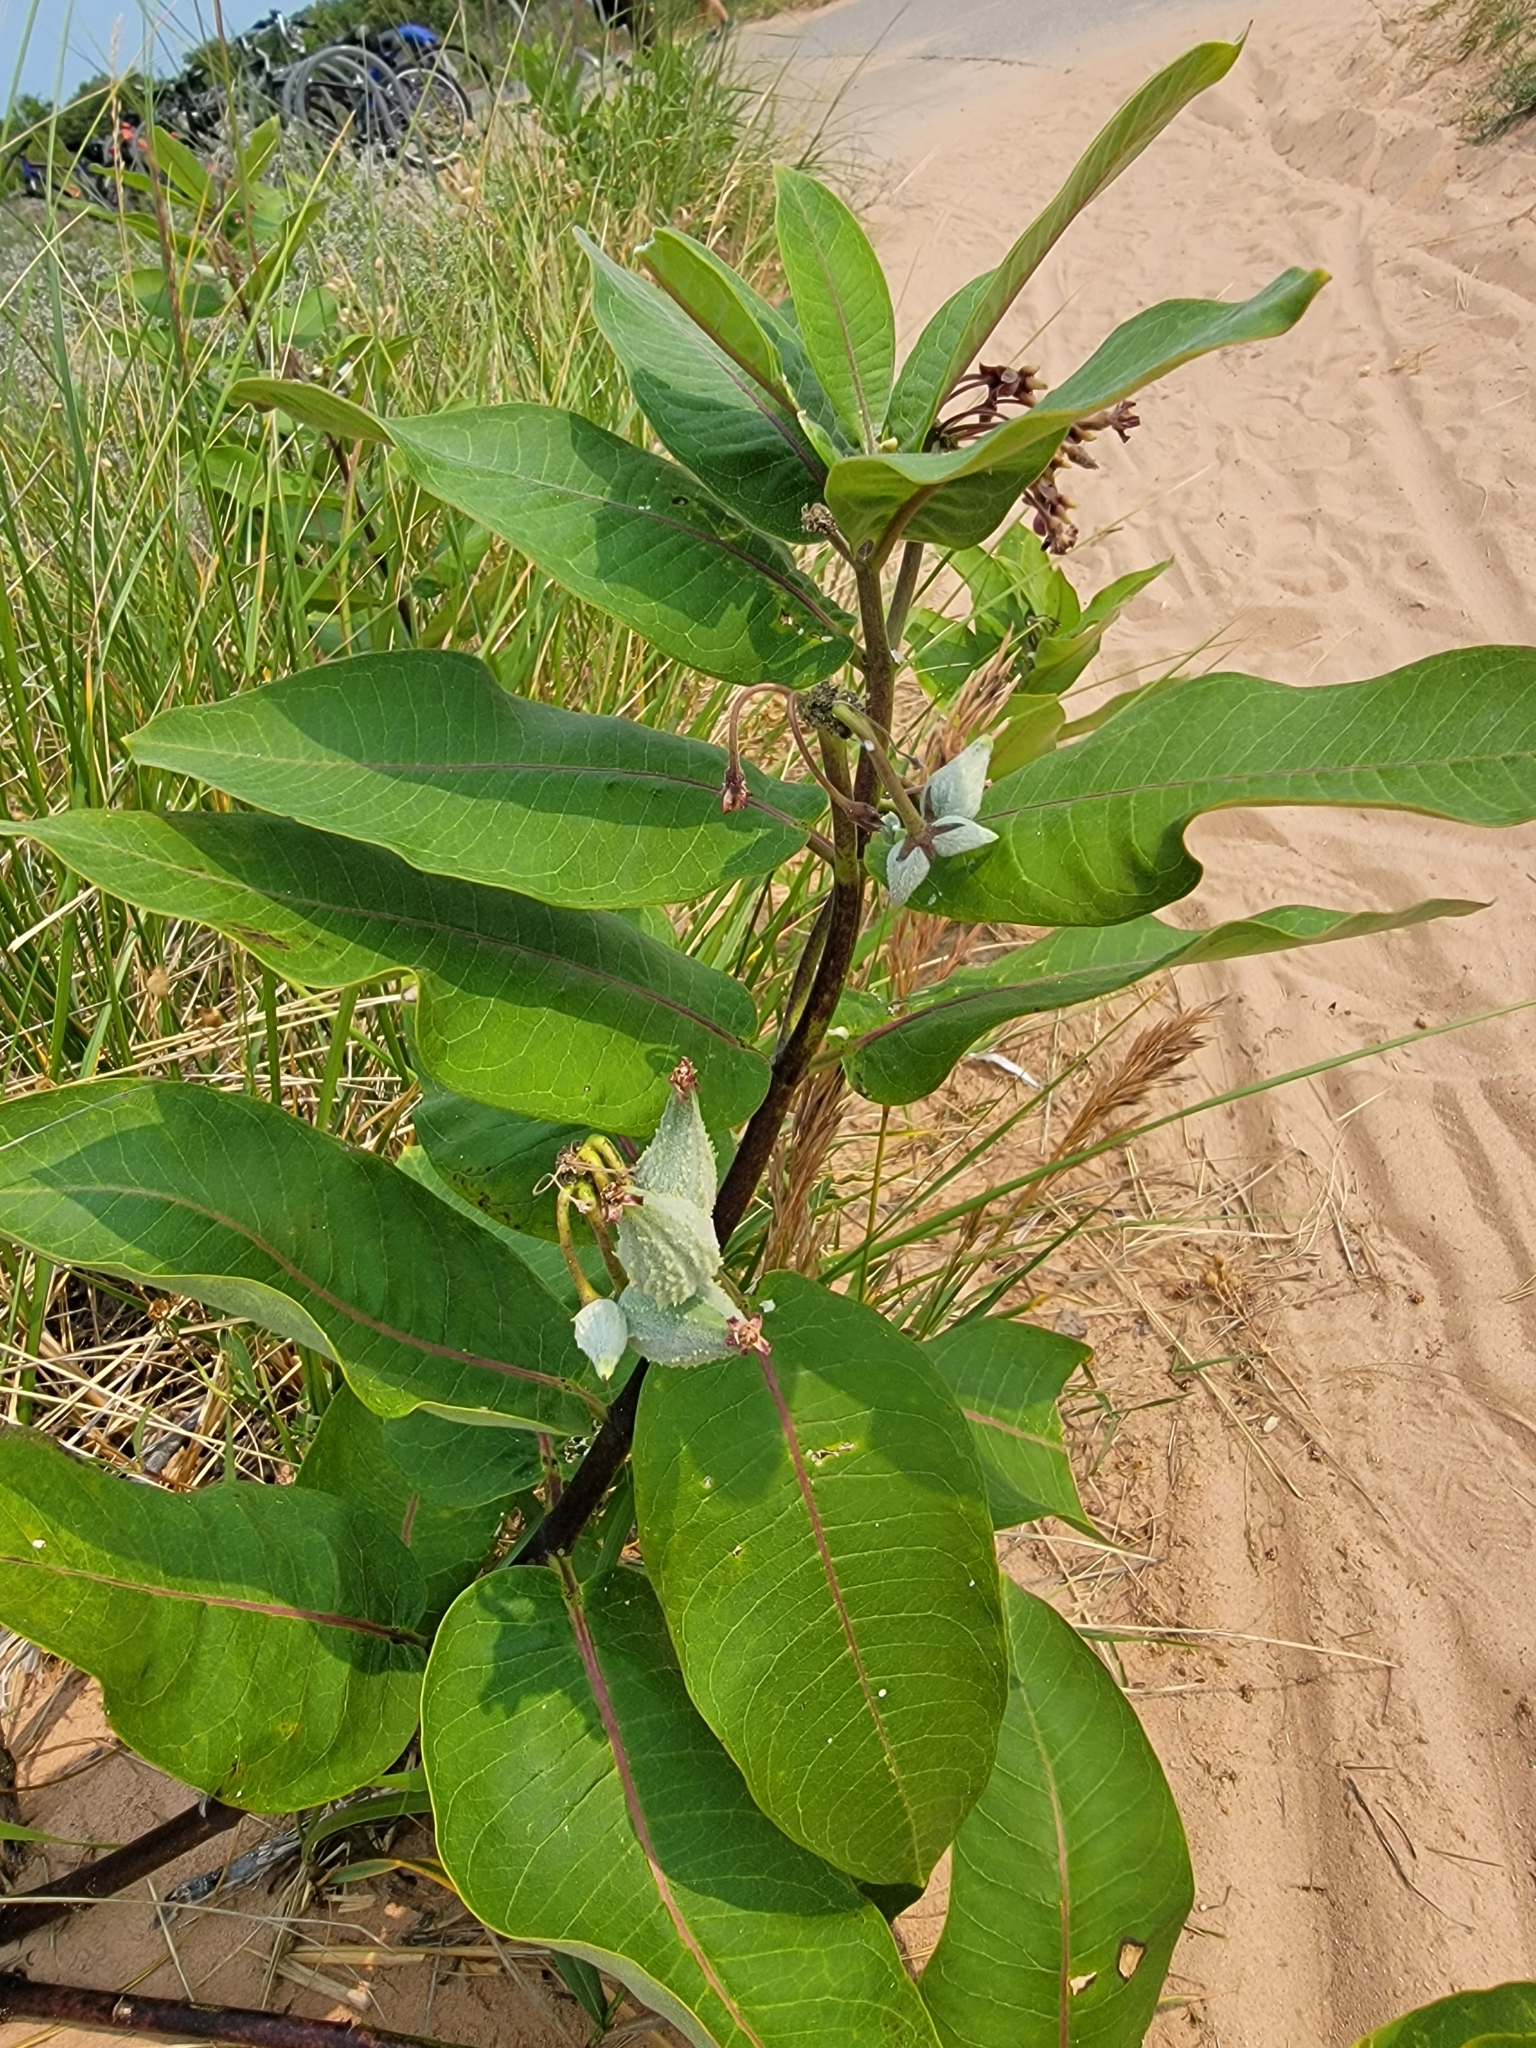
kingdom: Plantae
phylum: Tracheophyta
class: Magnoliopsida
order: Gentianales
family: Apocynaceae
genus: Asclepias
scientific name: Asclepias syriaca
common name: Common milkweed
